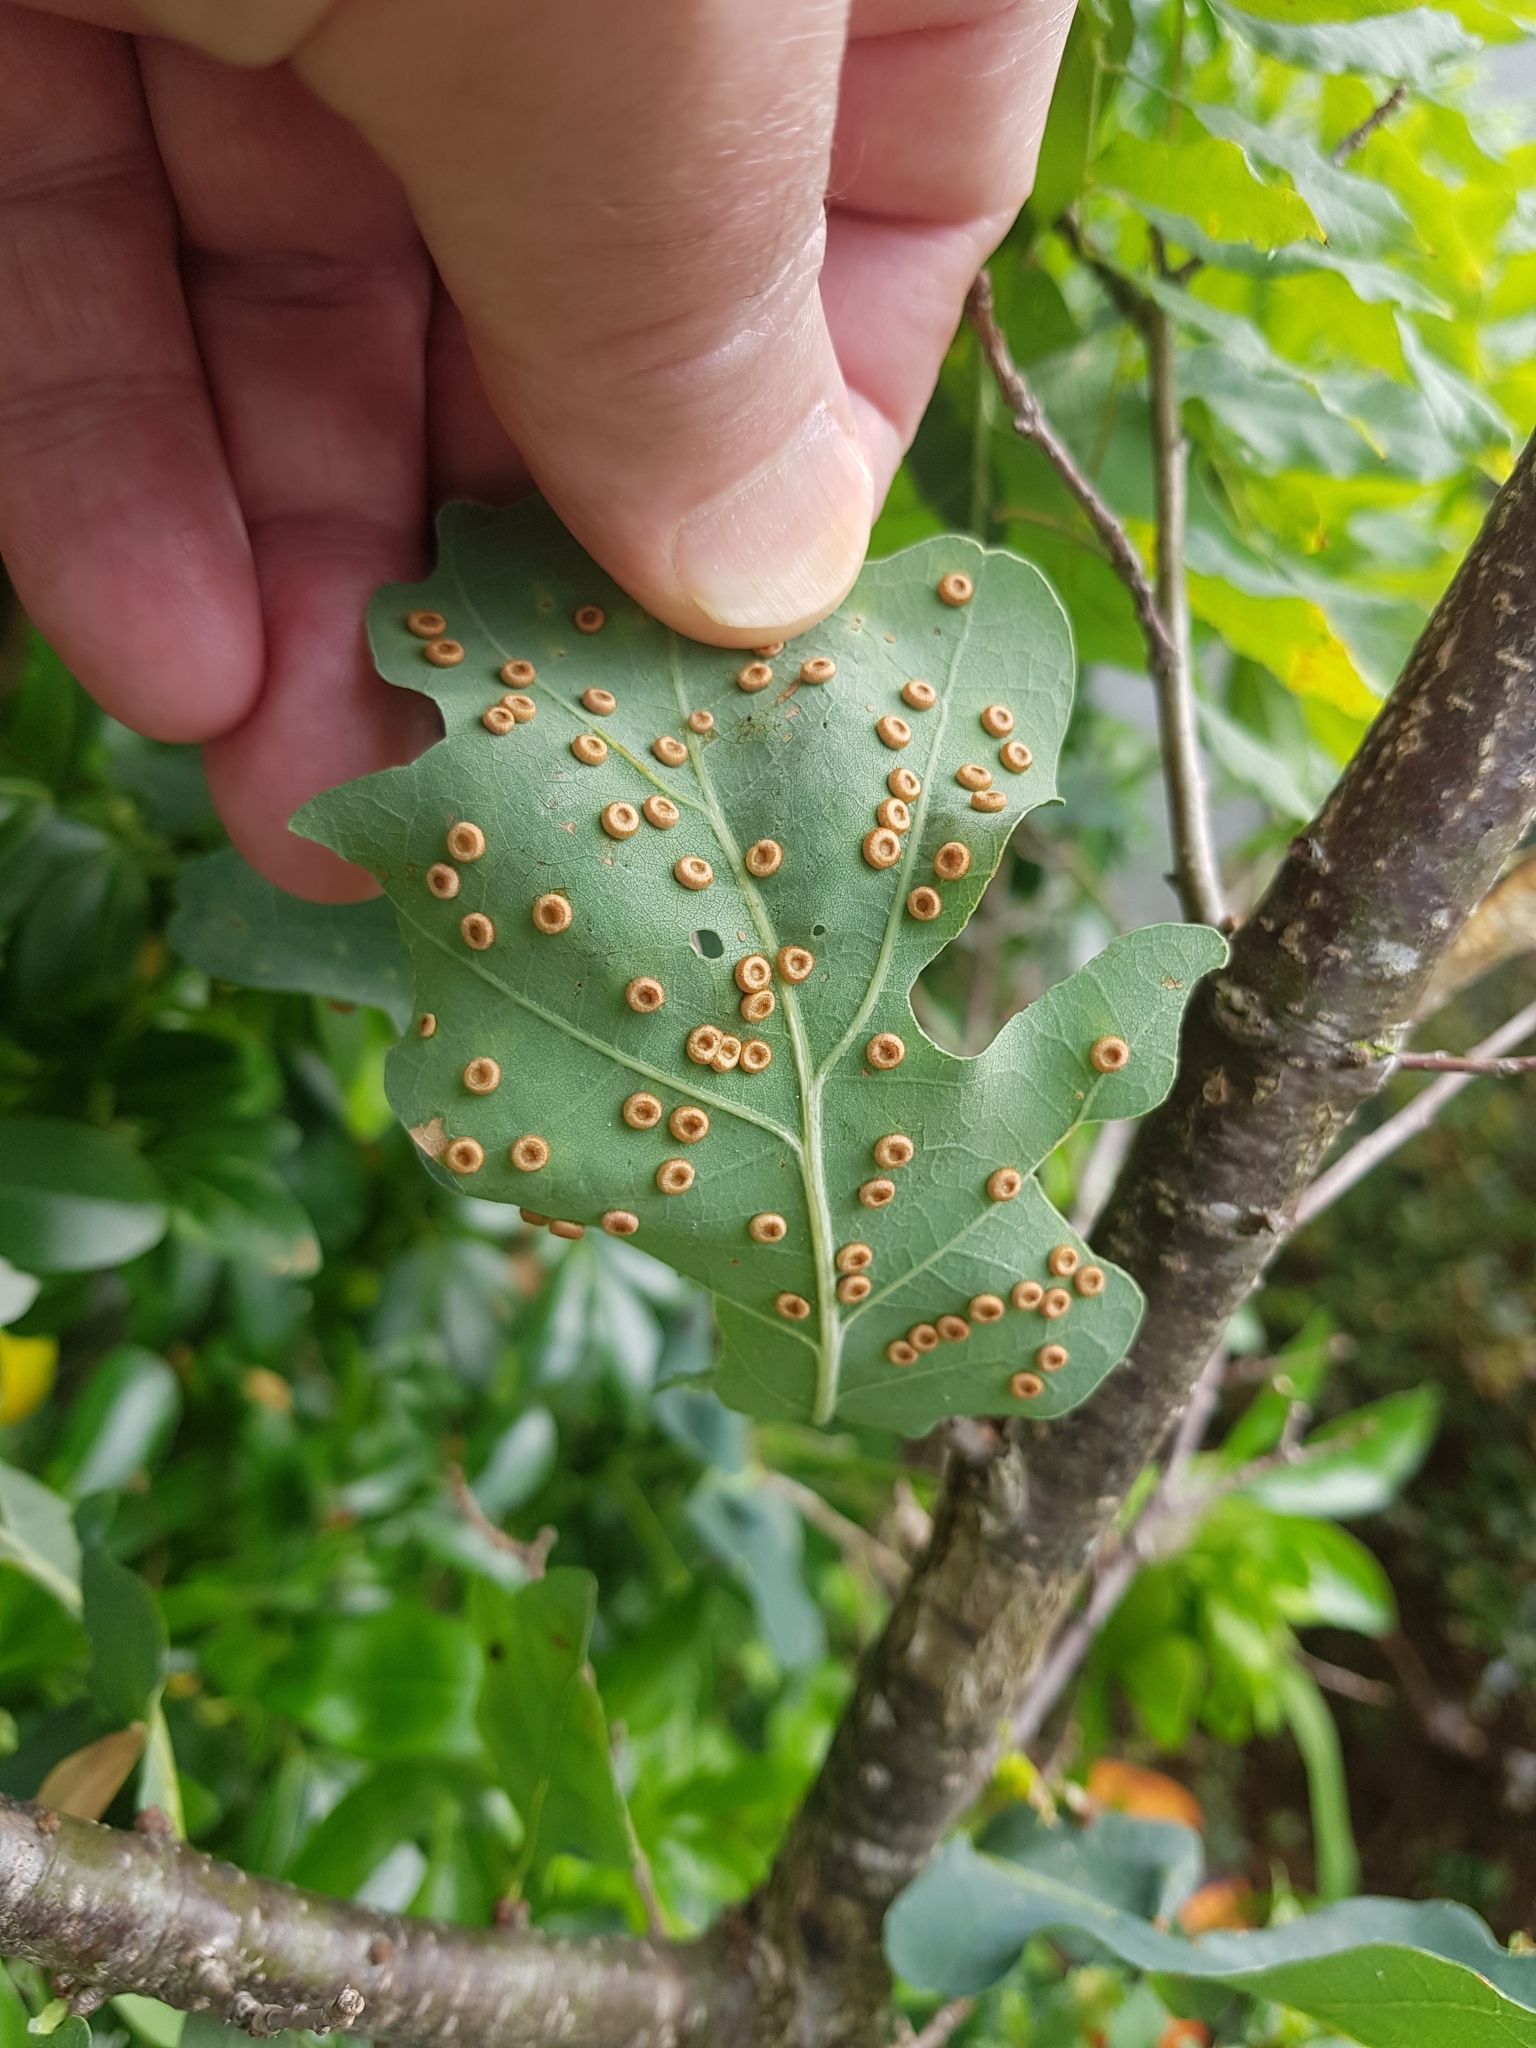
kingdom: Animalia
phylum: Arthropoda
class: Insecta
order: Hymenoptera
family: Cynipidae
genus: Neuroterus
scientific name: Neuroterus numismalis
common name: Silk-button spangle gall
